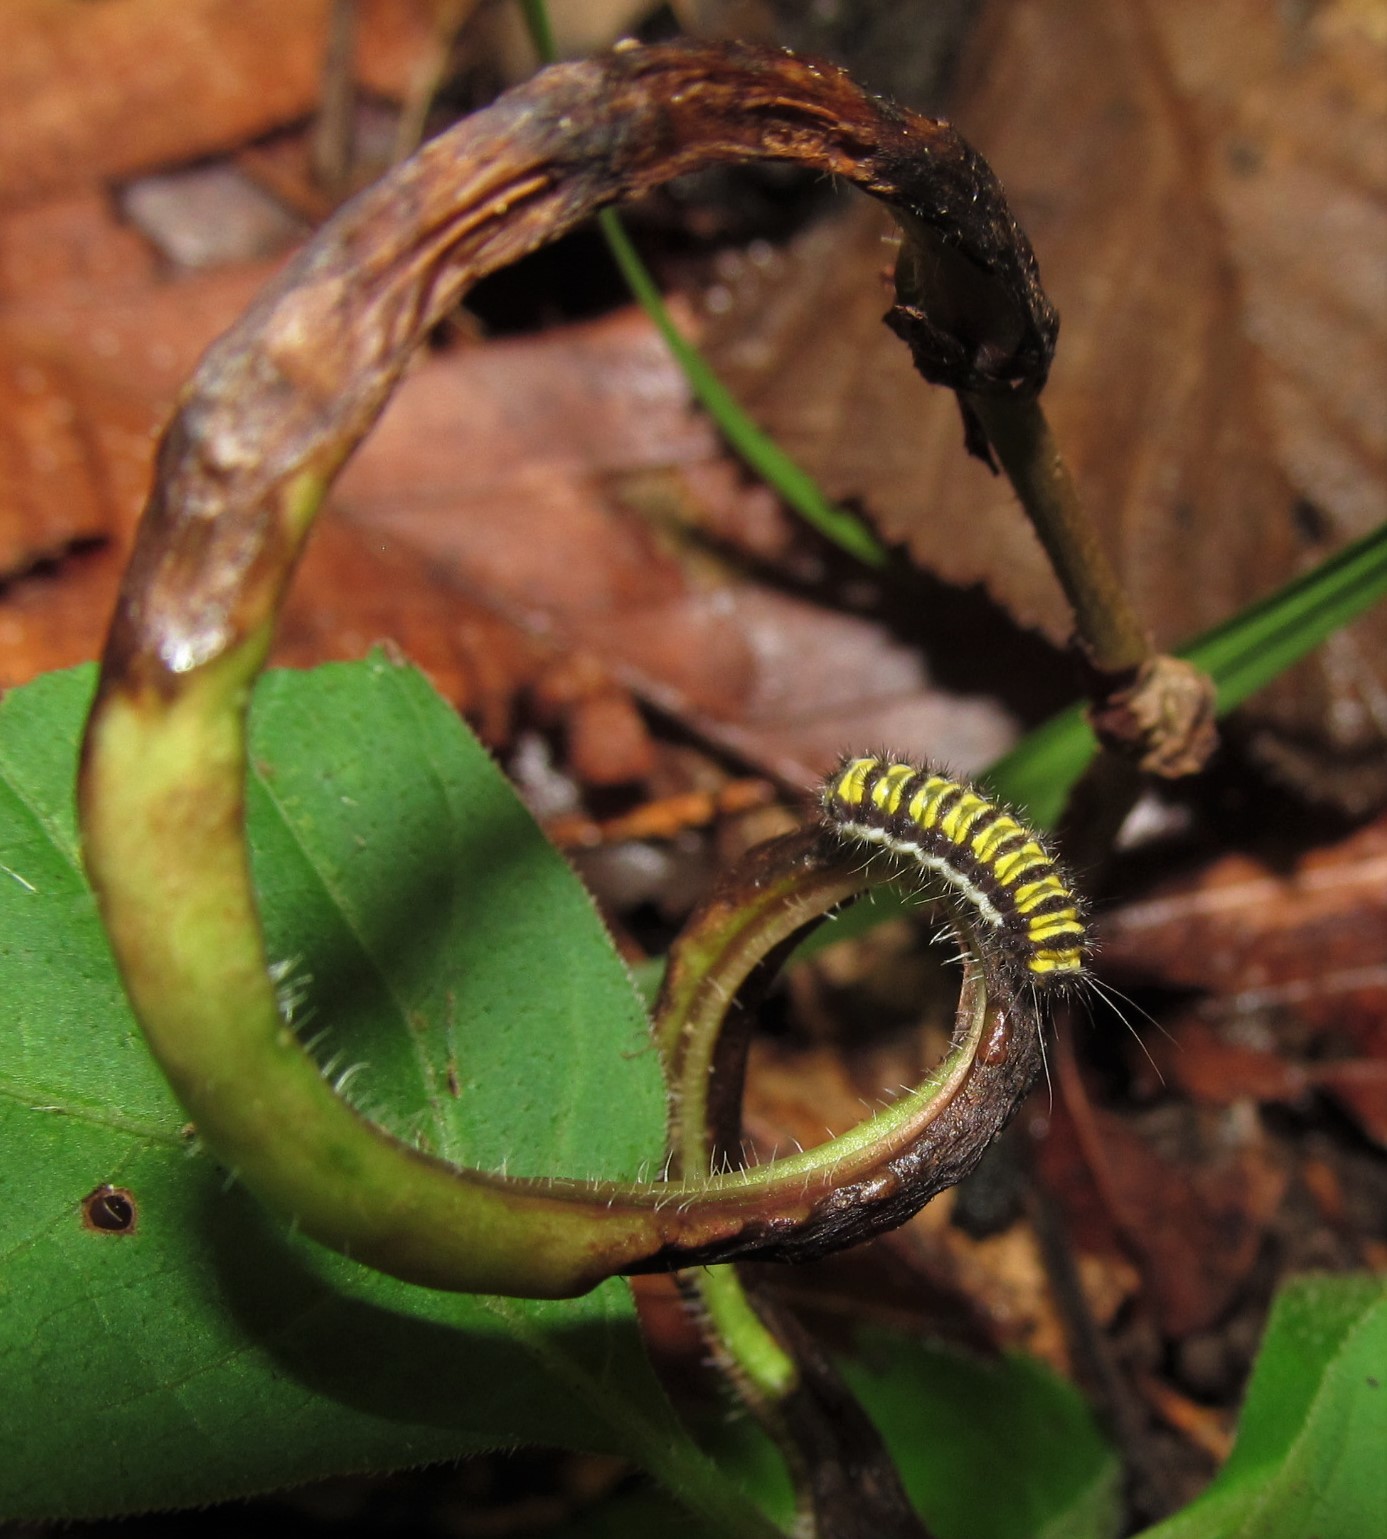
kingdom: Animalia
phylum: Arthropoda
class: Insecta
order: Lepidoptera
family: Zygaenidae
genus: Harrisina
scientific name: Harrisina americana
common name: Grapeleaf skeletonizer moth
